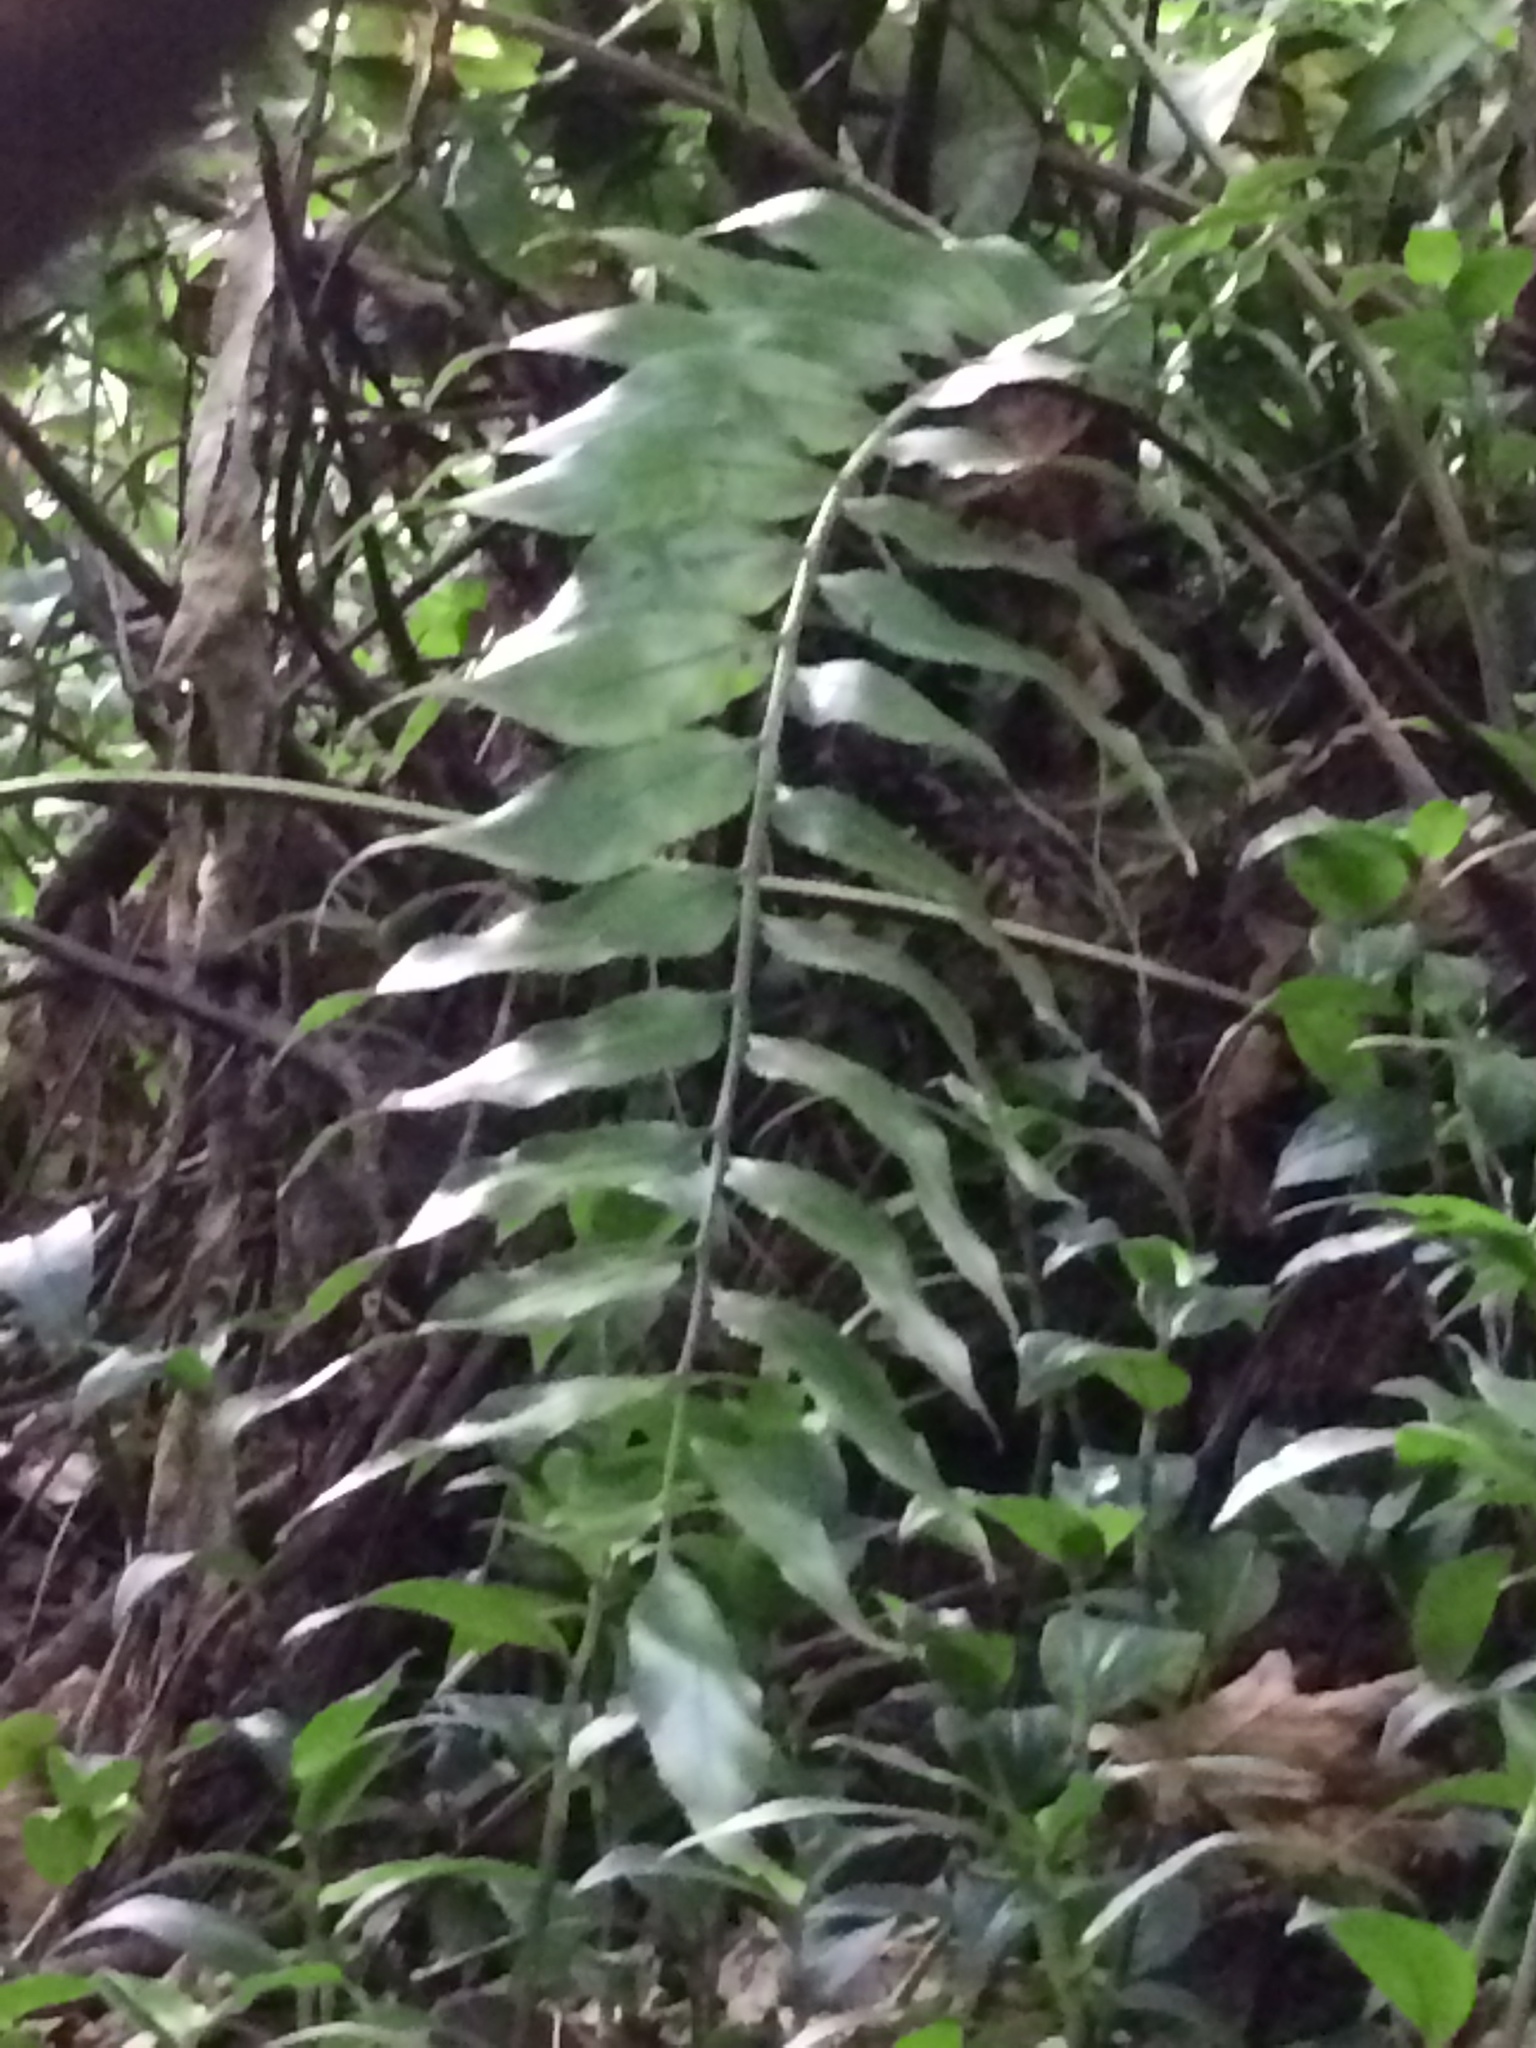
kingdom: Plantae
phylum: Tracheophyta
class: Polypodiopsida
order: Polypodiales
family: Aspleniaceae
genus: Asplenium
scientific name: Asplenium oblongifolium
